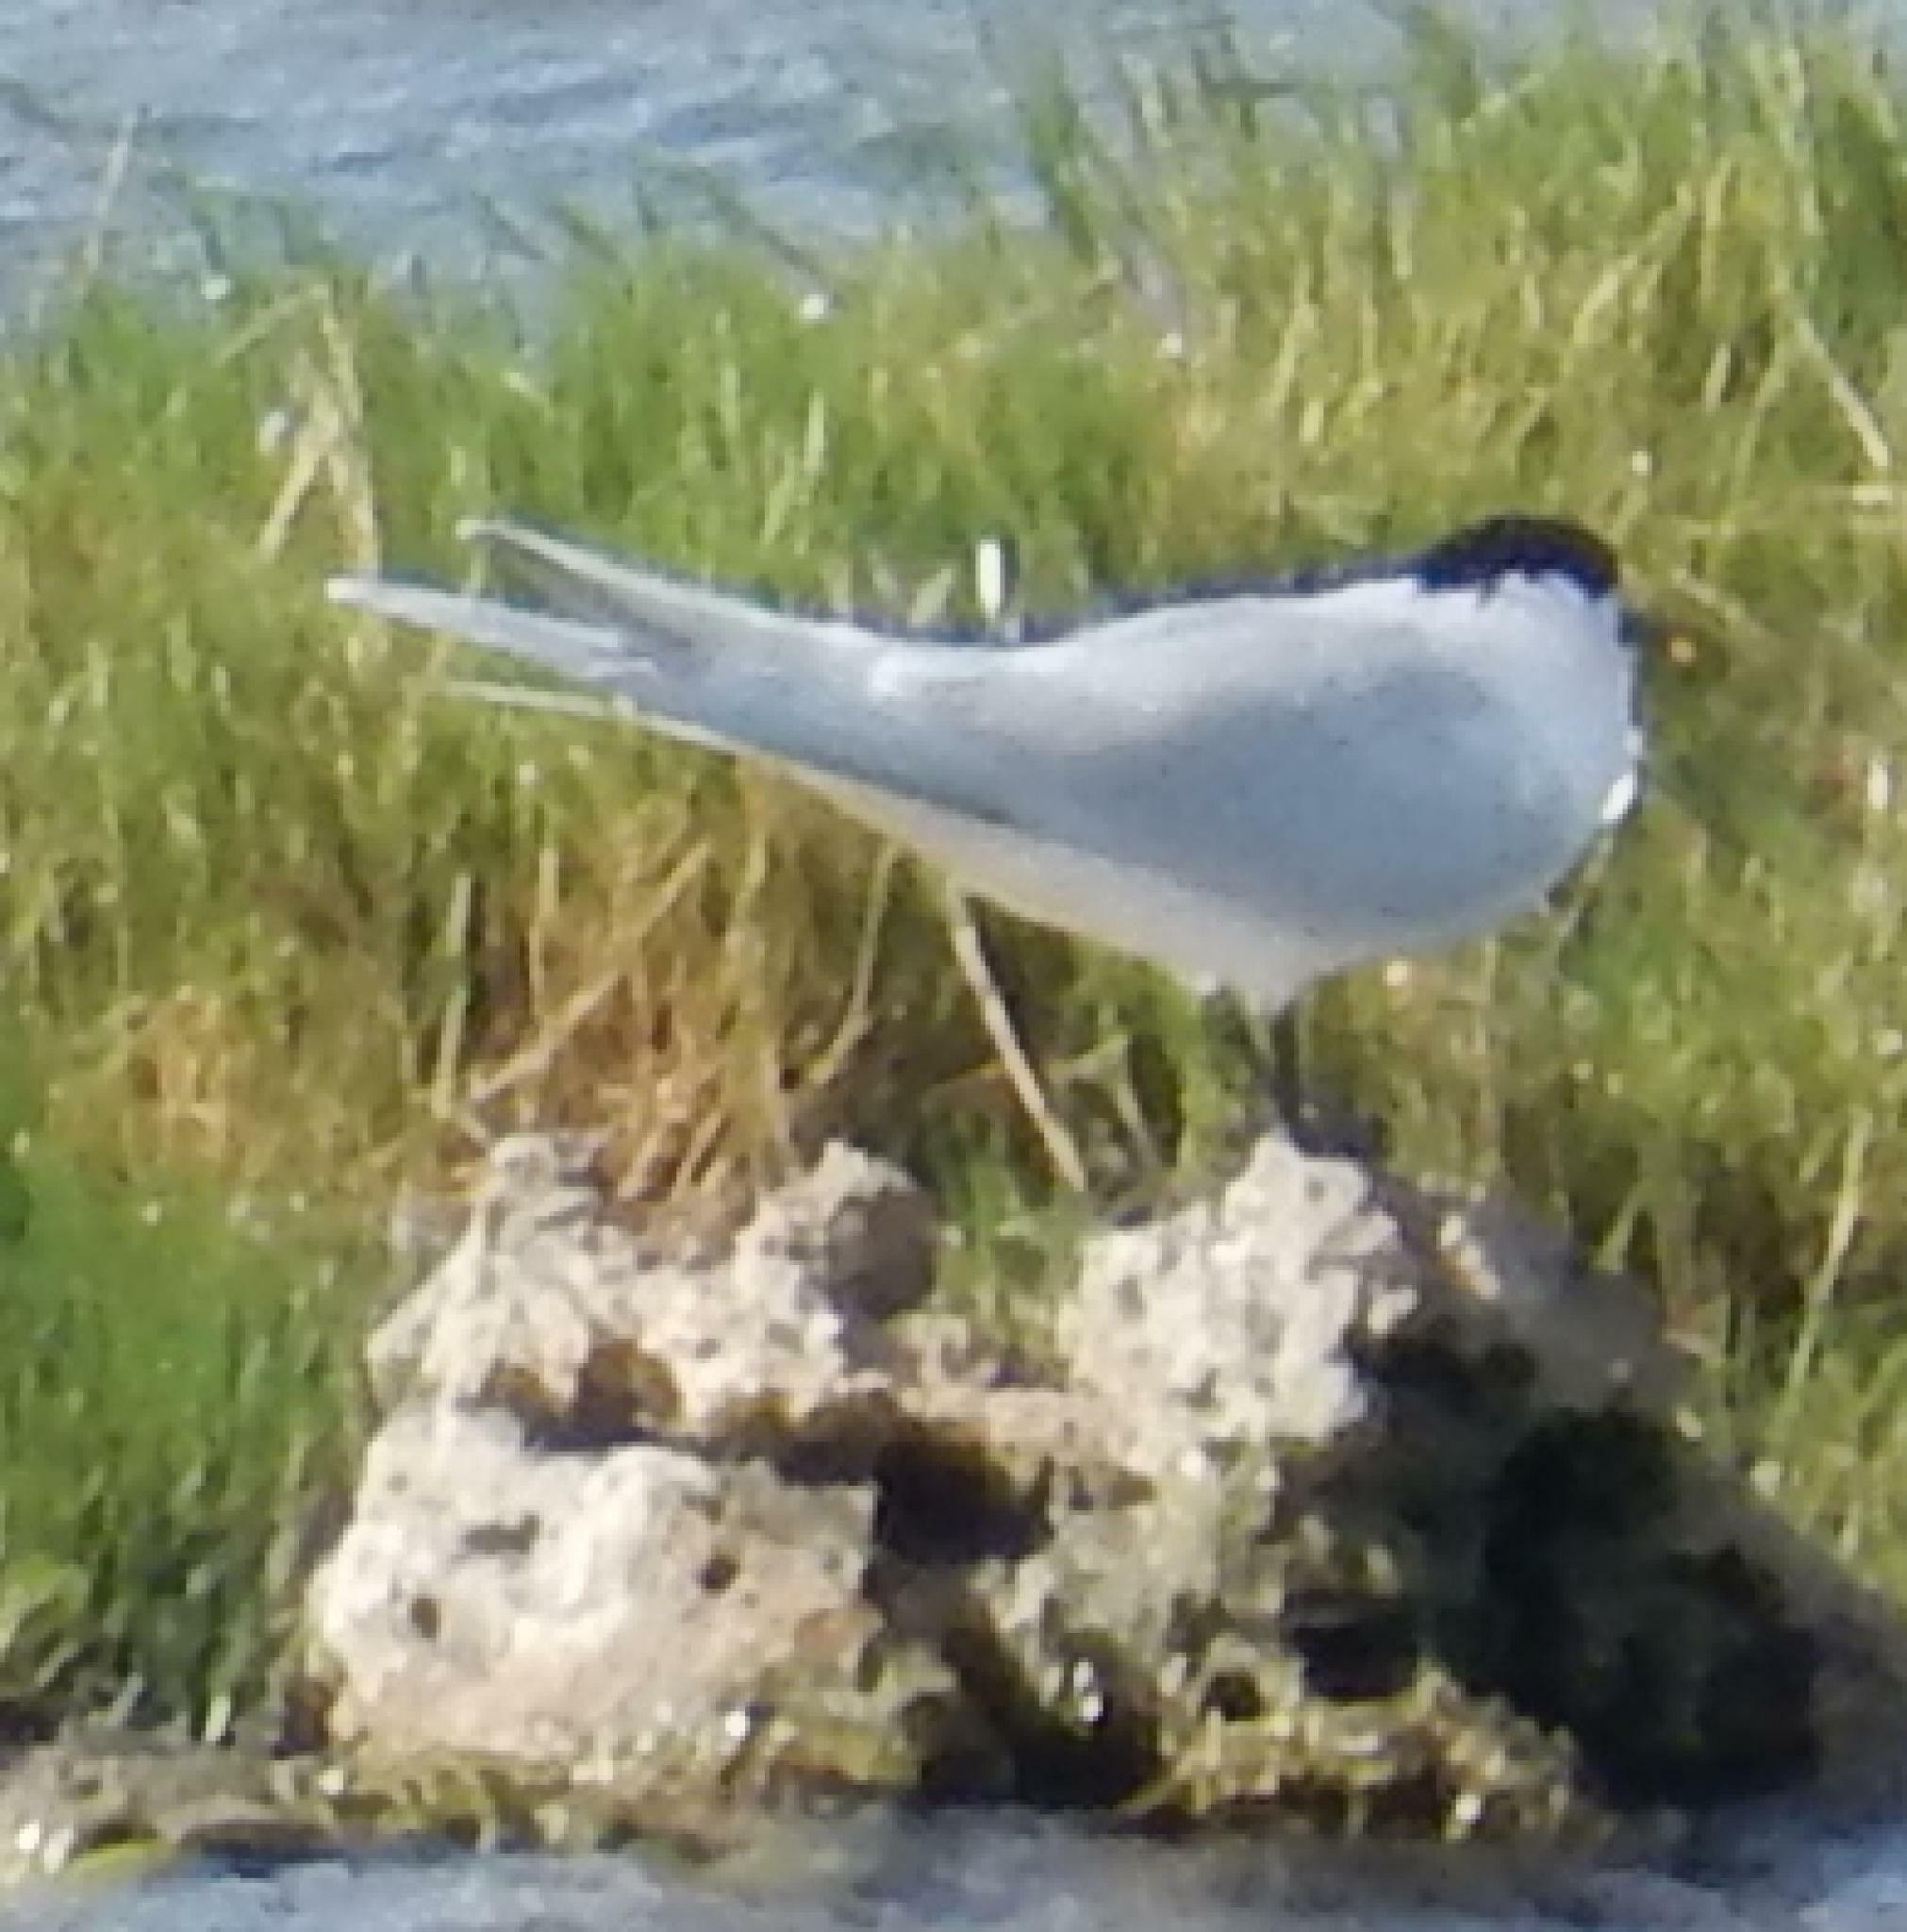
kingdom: Animalia
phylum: Chordata
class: Aves
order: Charadriiformes
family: Laridae
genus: Thalasseus
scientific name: Thalasseus sandvicensis
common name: Sandwich tern
